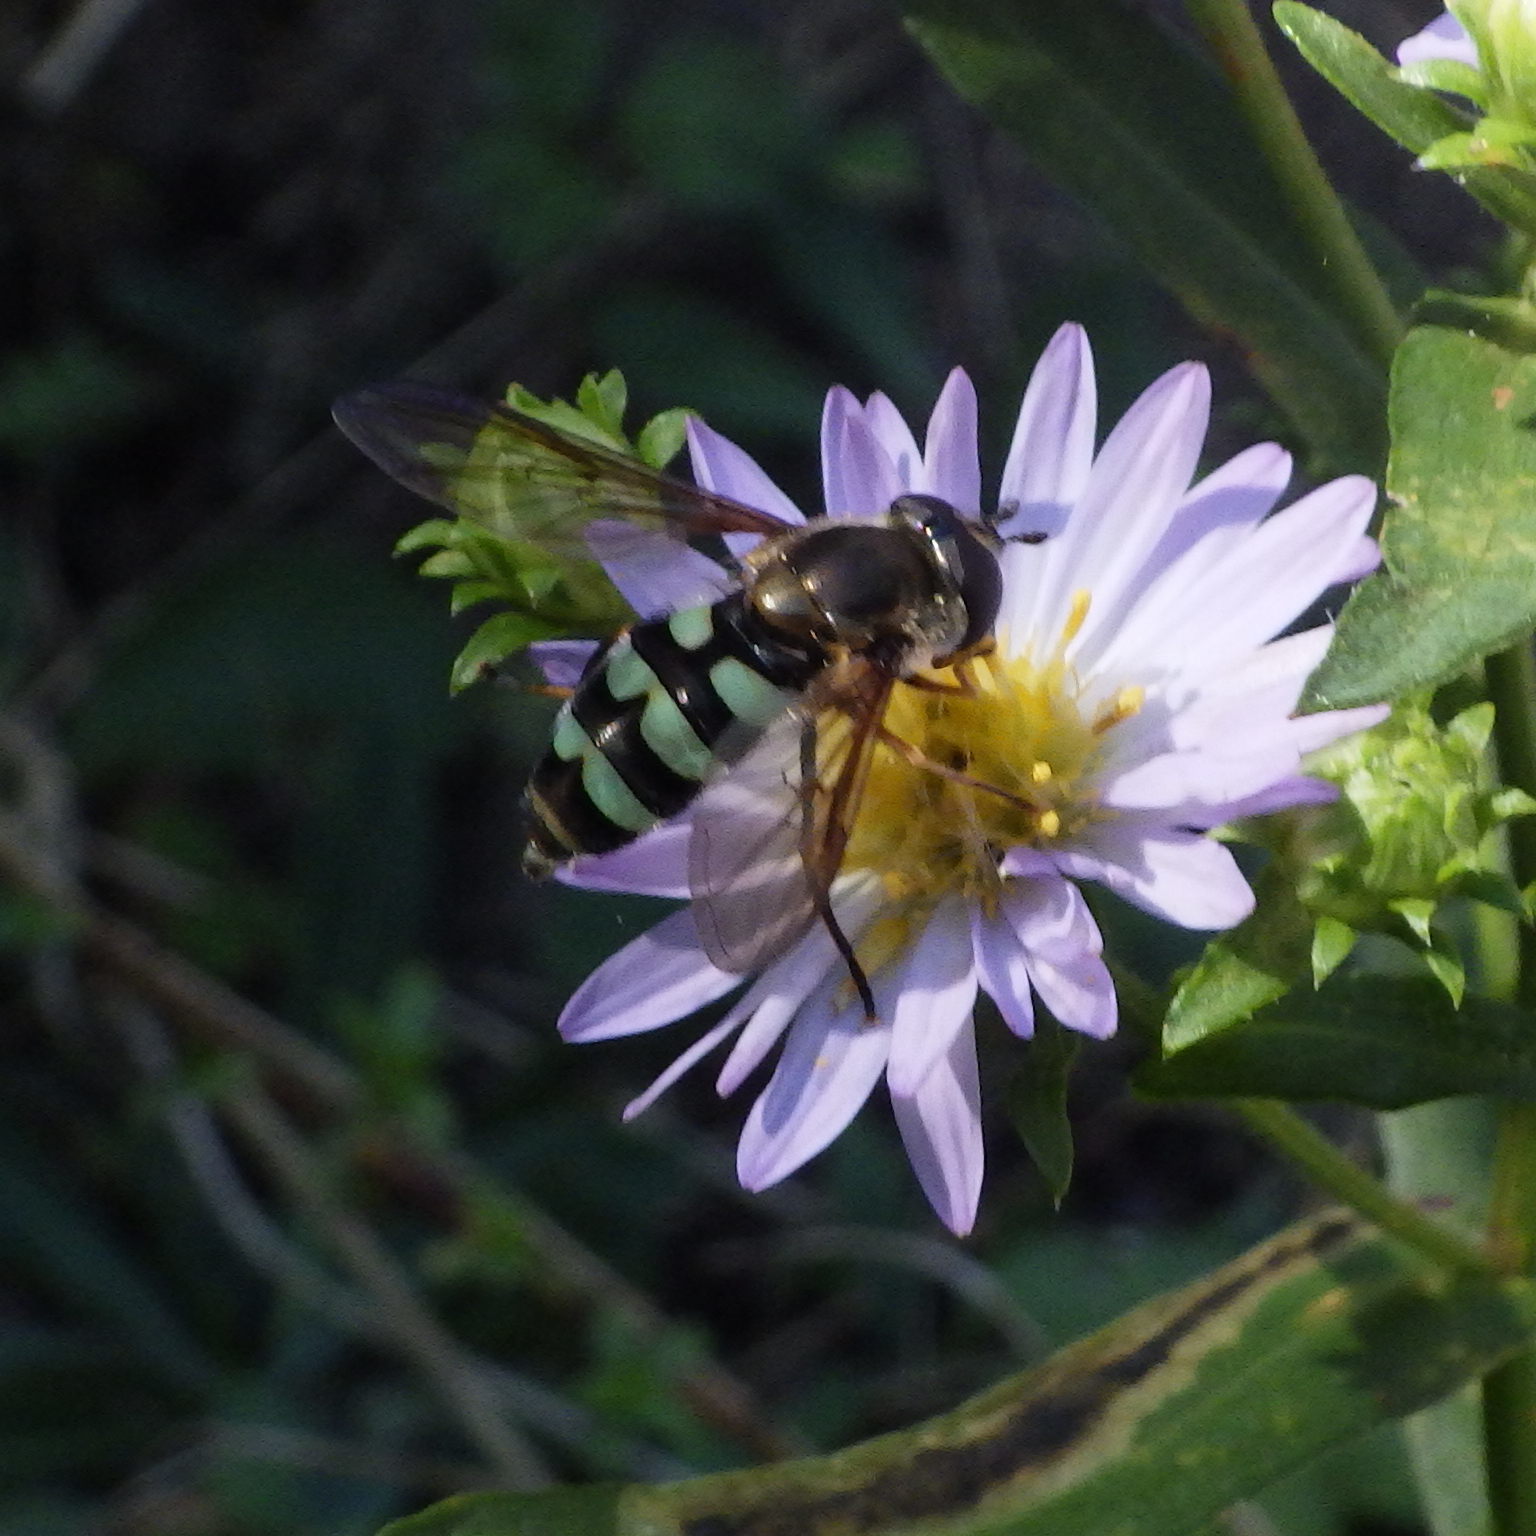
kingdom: Animalia
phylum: Arthropoda
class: Insecta
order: Diptera
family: Syrphidae
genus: Megasyrphus
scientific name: Megasyrphus laxus
